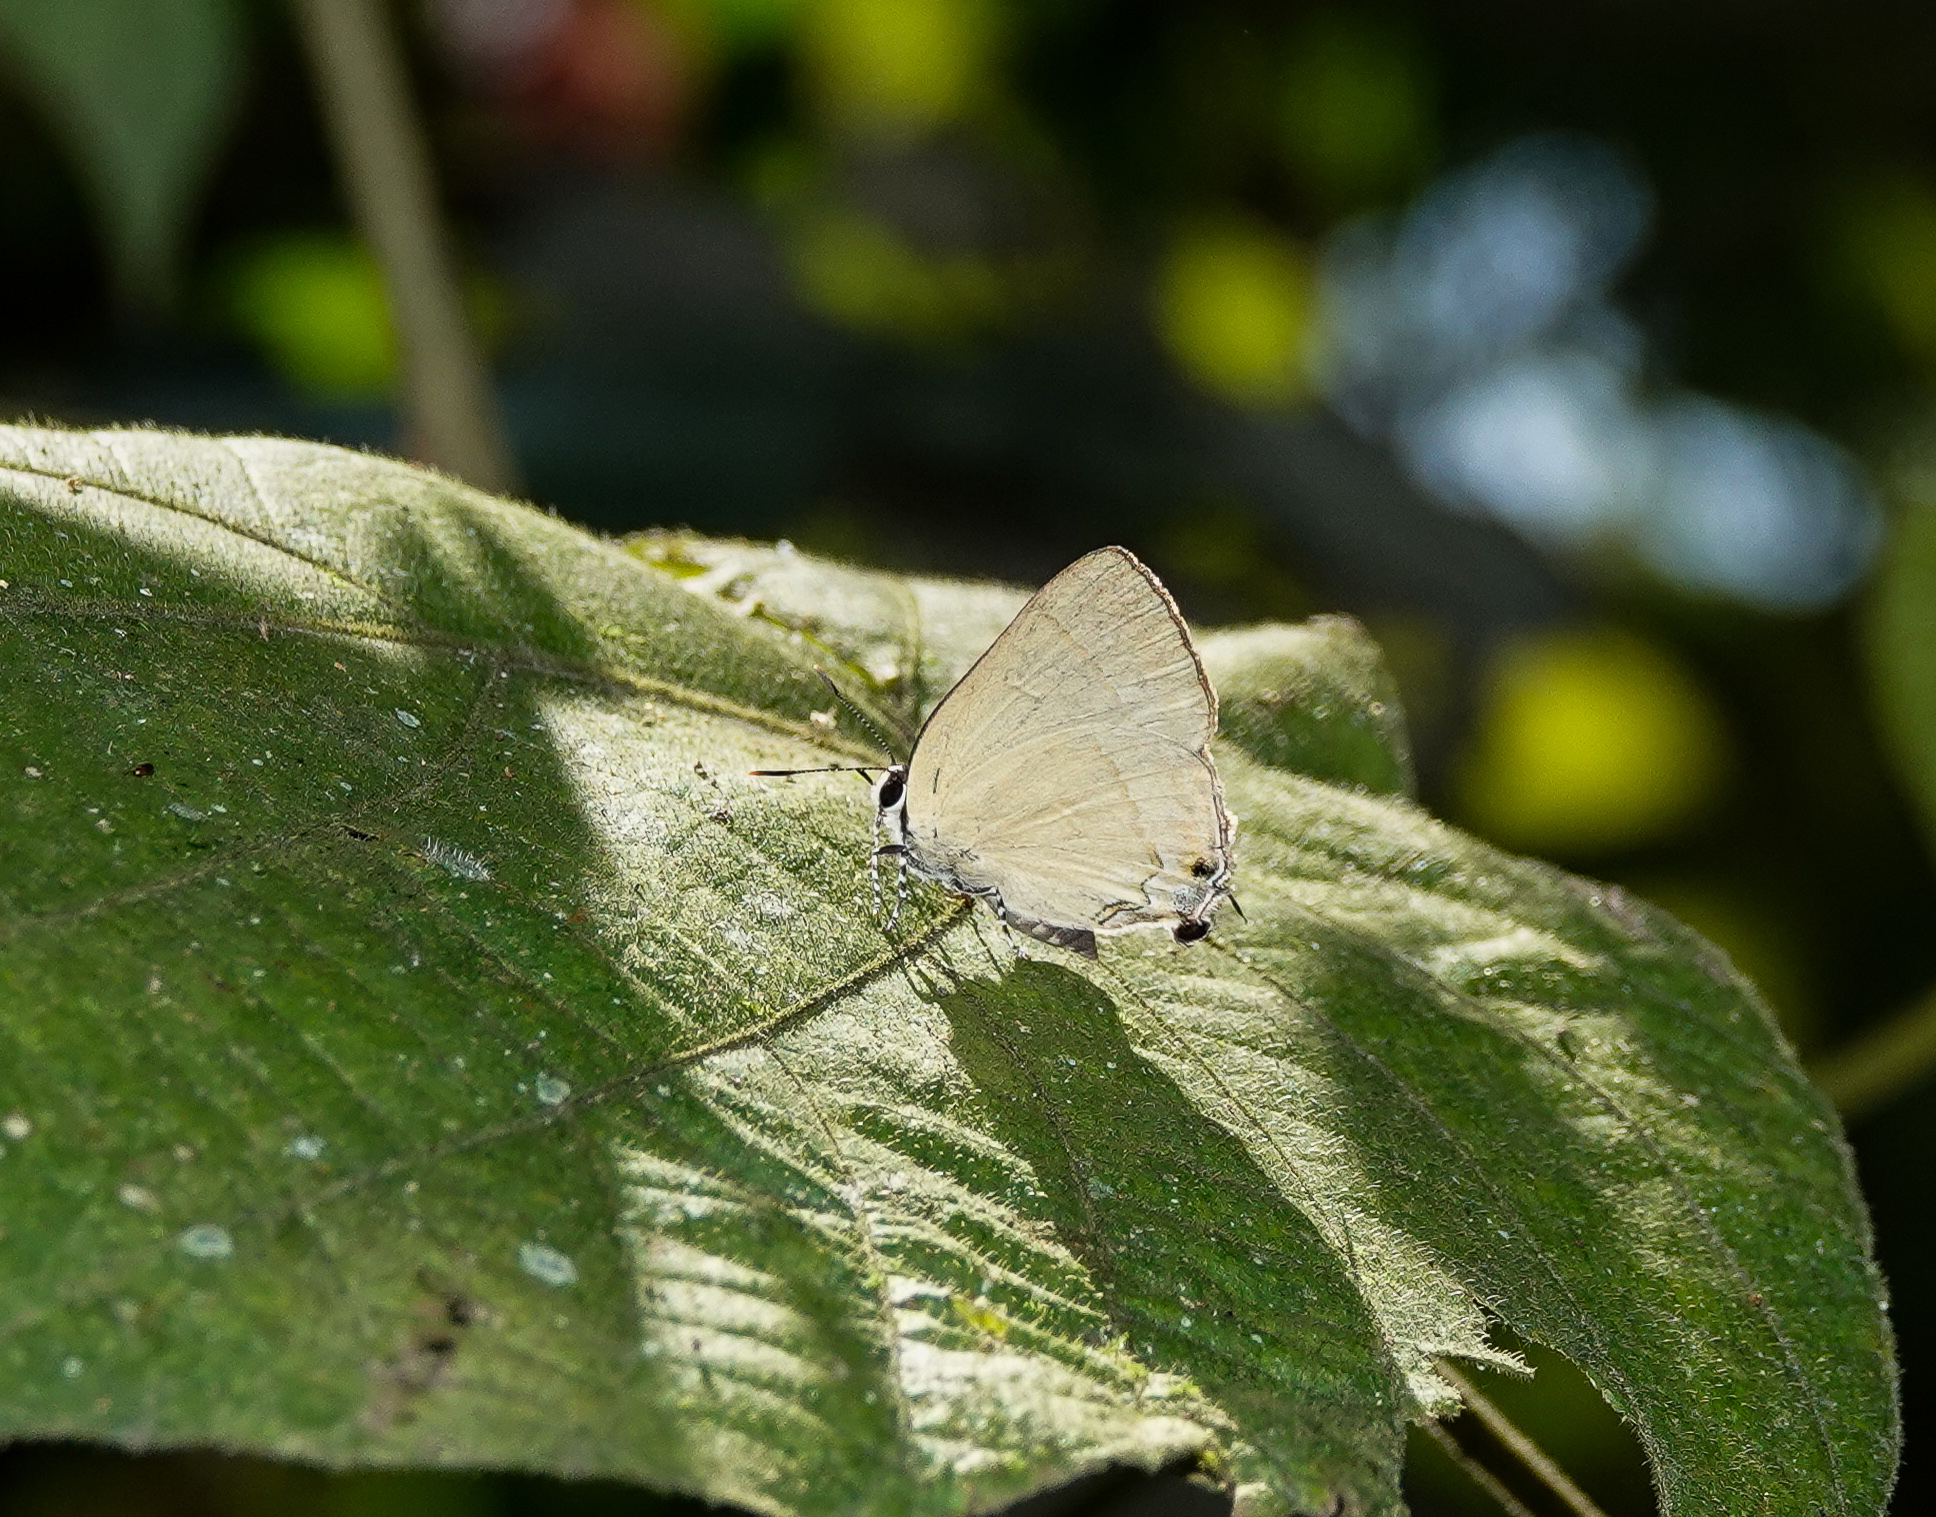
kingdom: Animalia
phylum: Arthropoda
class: Insecta
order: Lepidoptera
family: Lycaenidae
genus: Rapala
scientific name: Rapala suffusa
